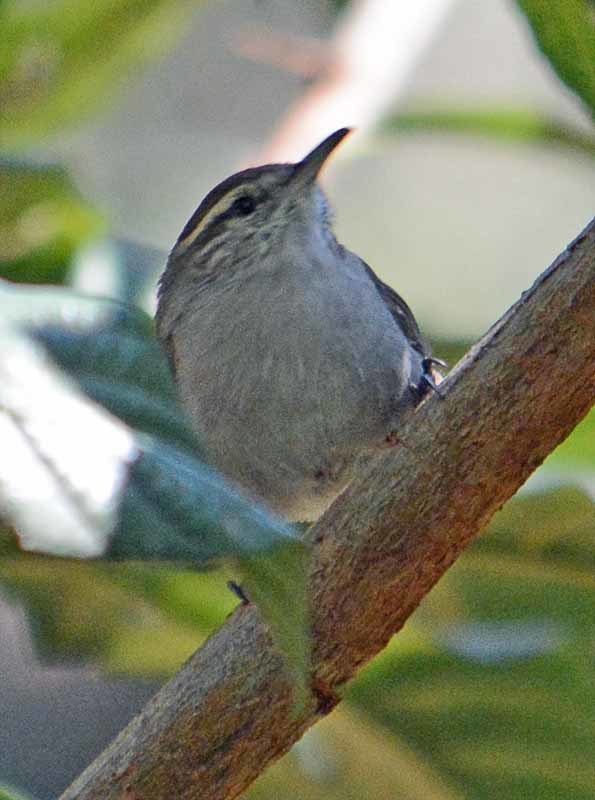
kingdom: Animalia
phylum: Chordata
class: Aves
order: Passeriformes
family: Troglodytidae
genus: Thryomanes
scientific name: Thryomanes bewickii
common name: Bewick's wren
